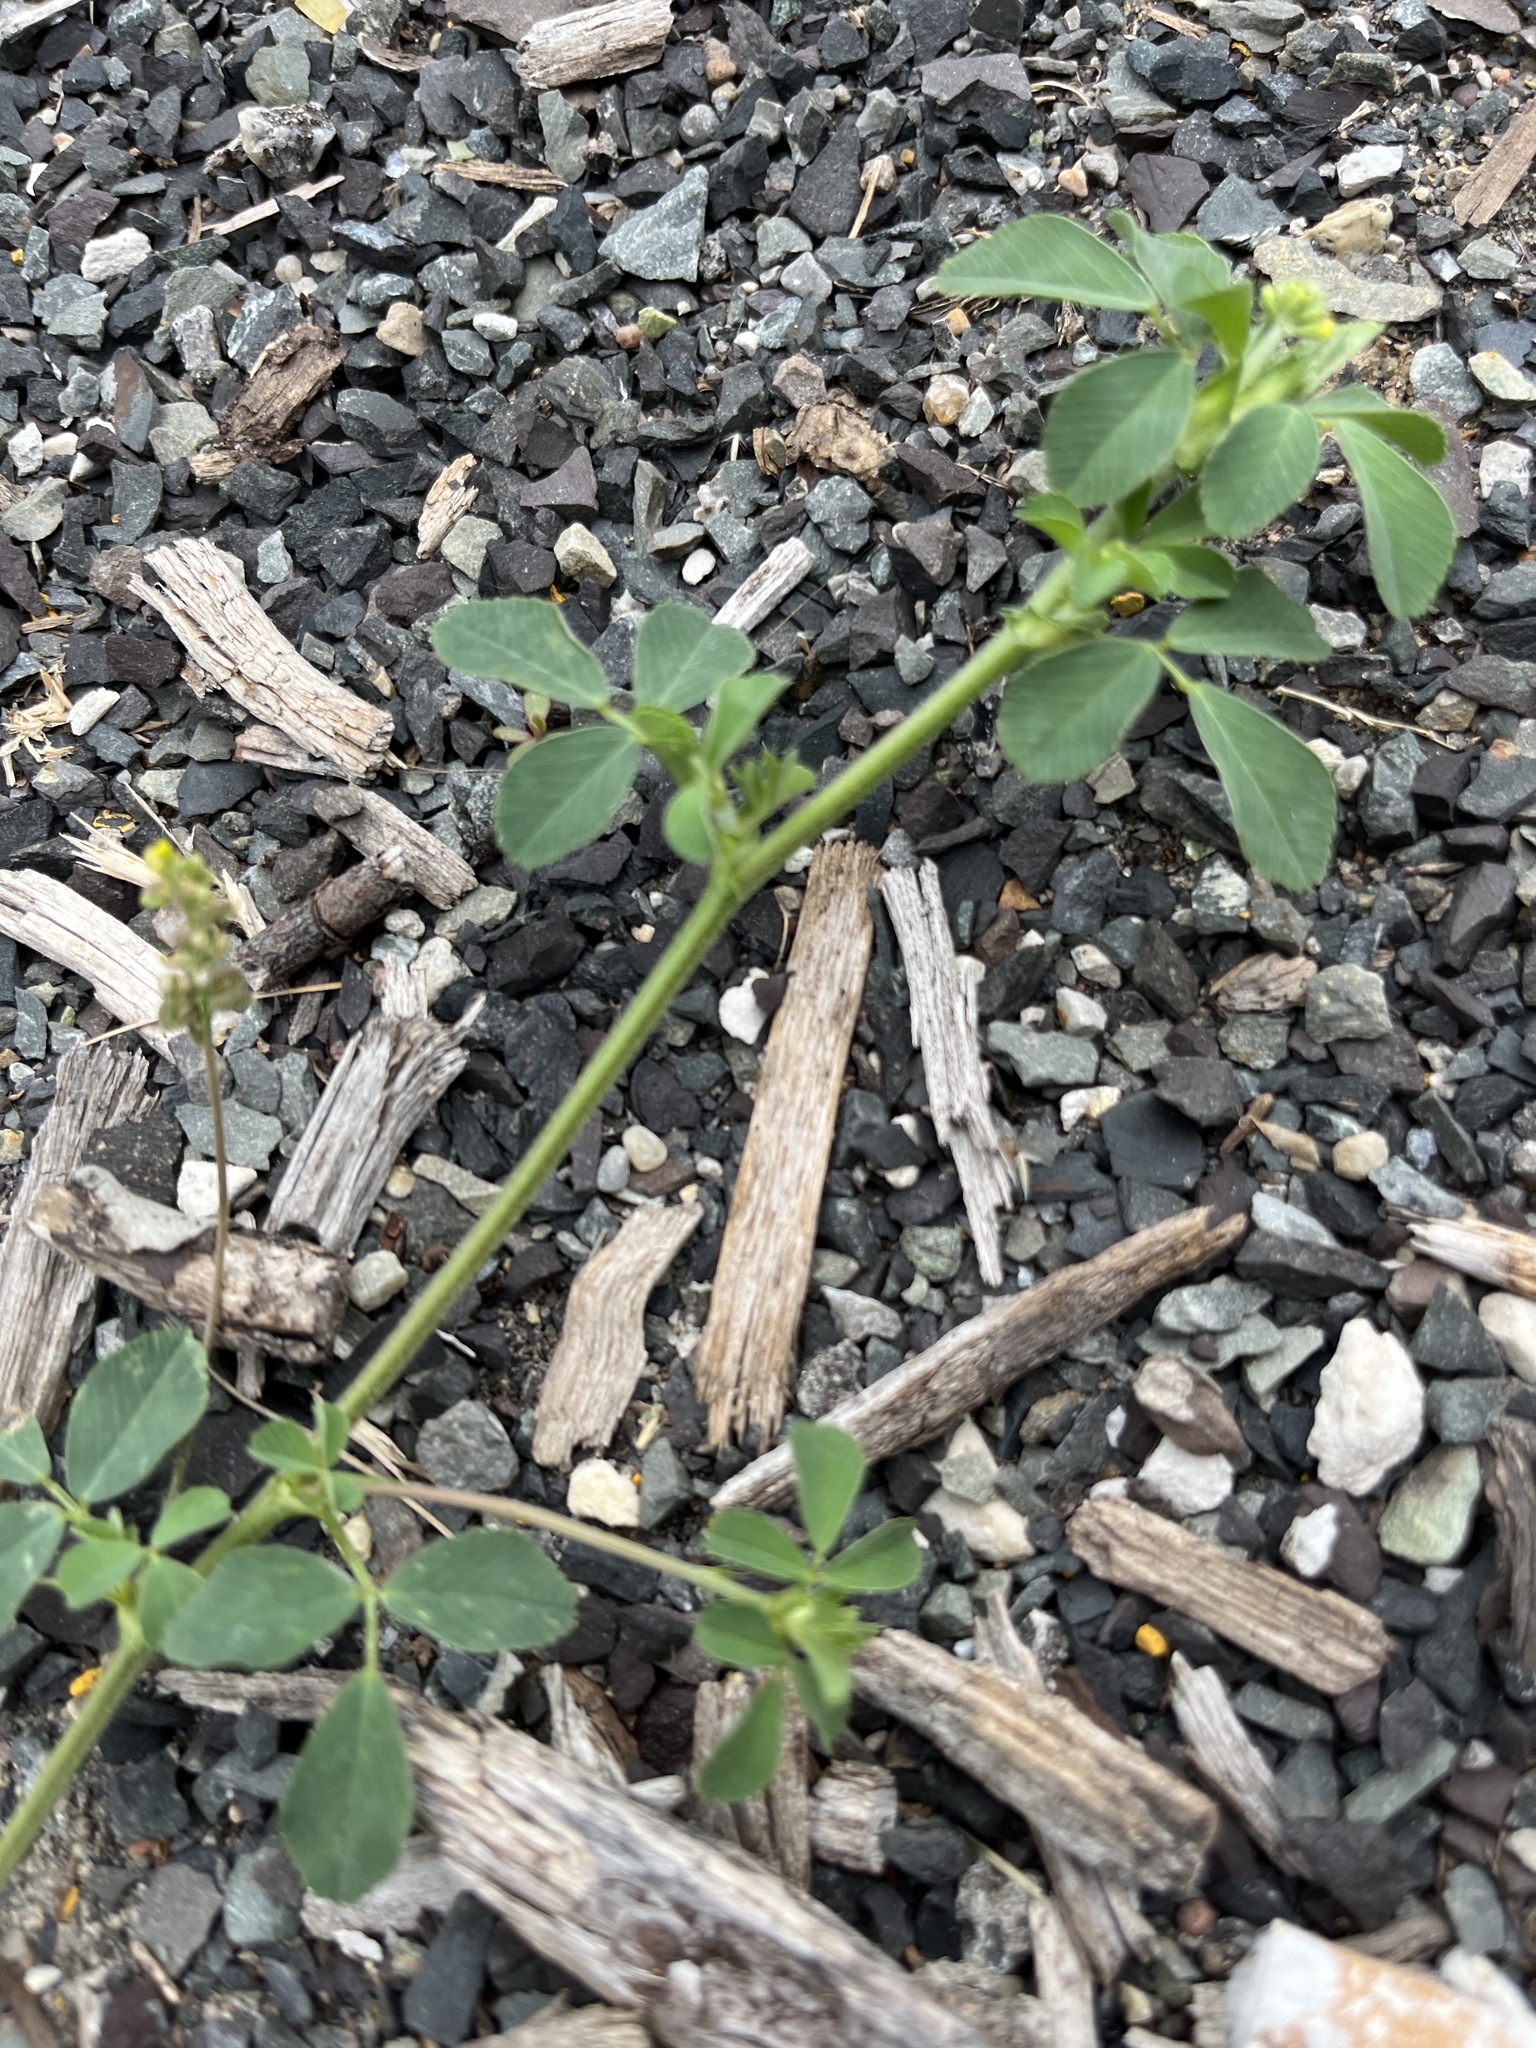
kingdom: Plantae
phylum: Tracheophyta
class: Magnoliopsida
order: Fabales
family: Fabaceae
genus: Medicago
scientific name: Medicago lupulina
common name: Black medick
